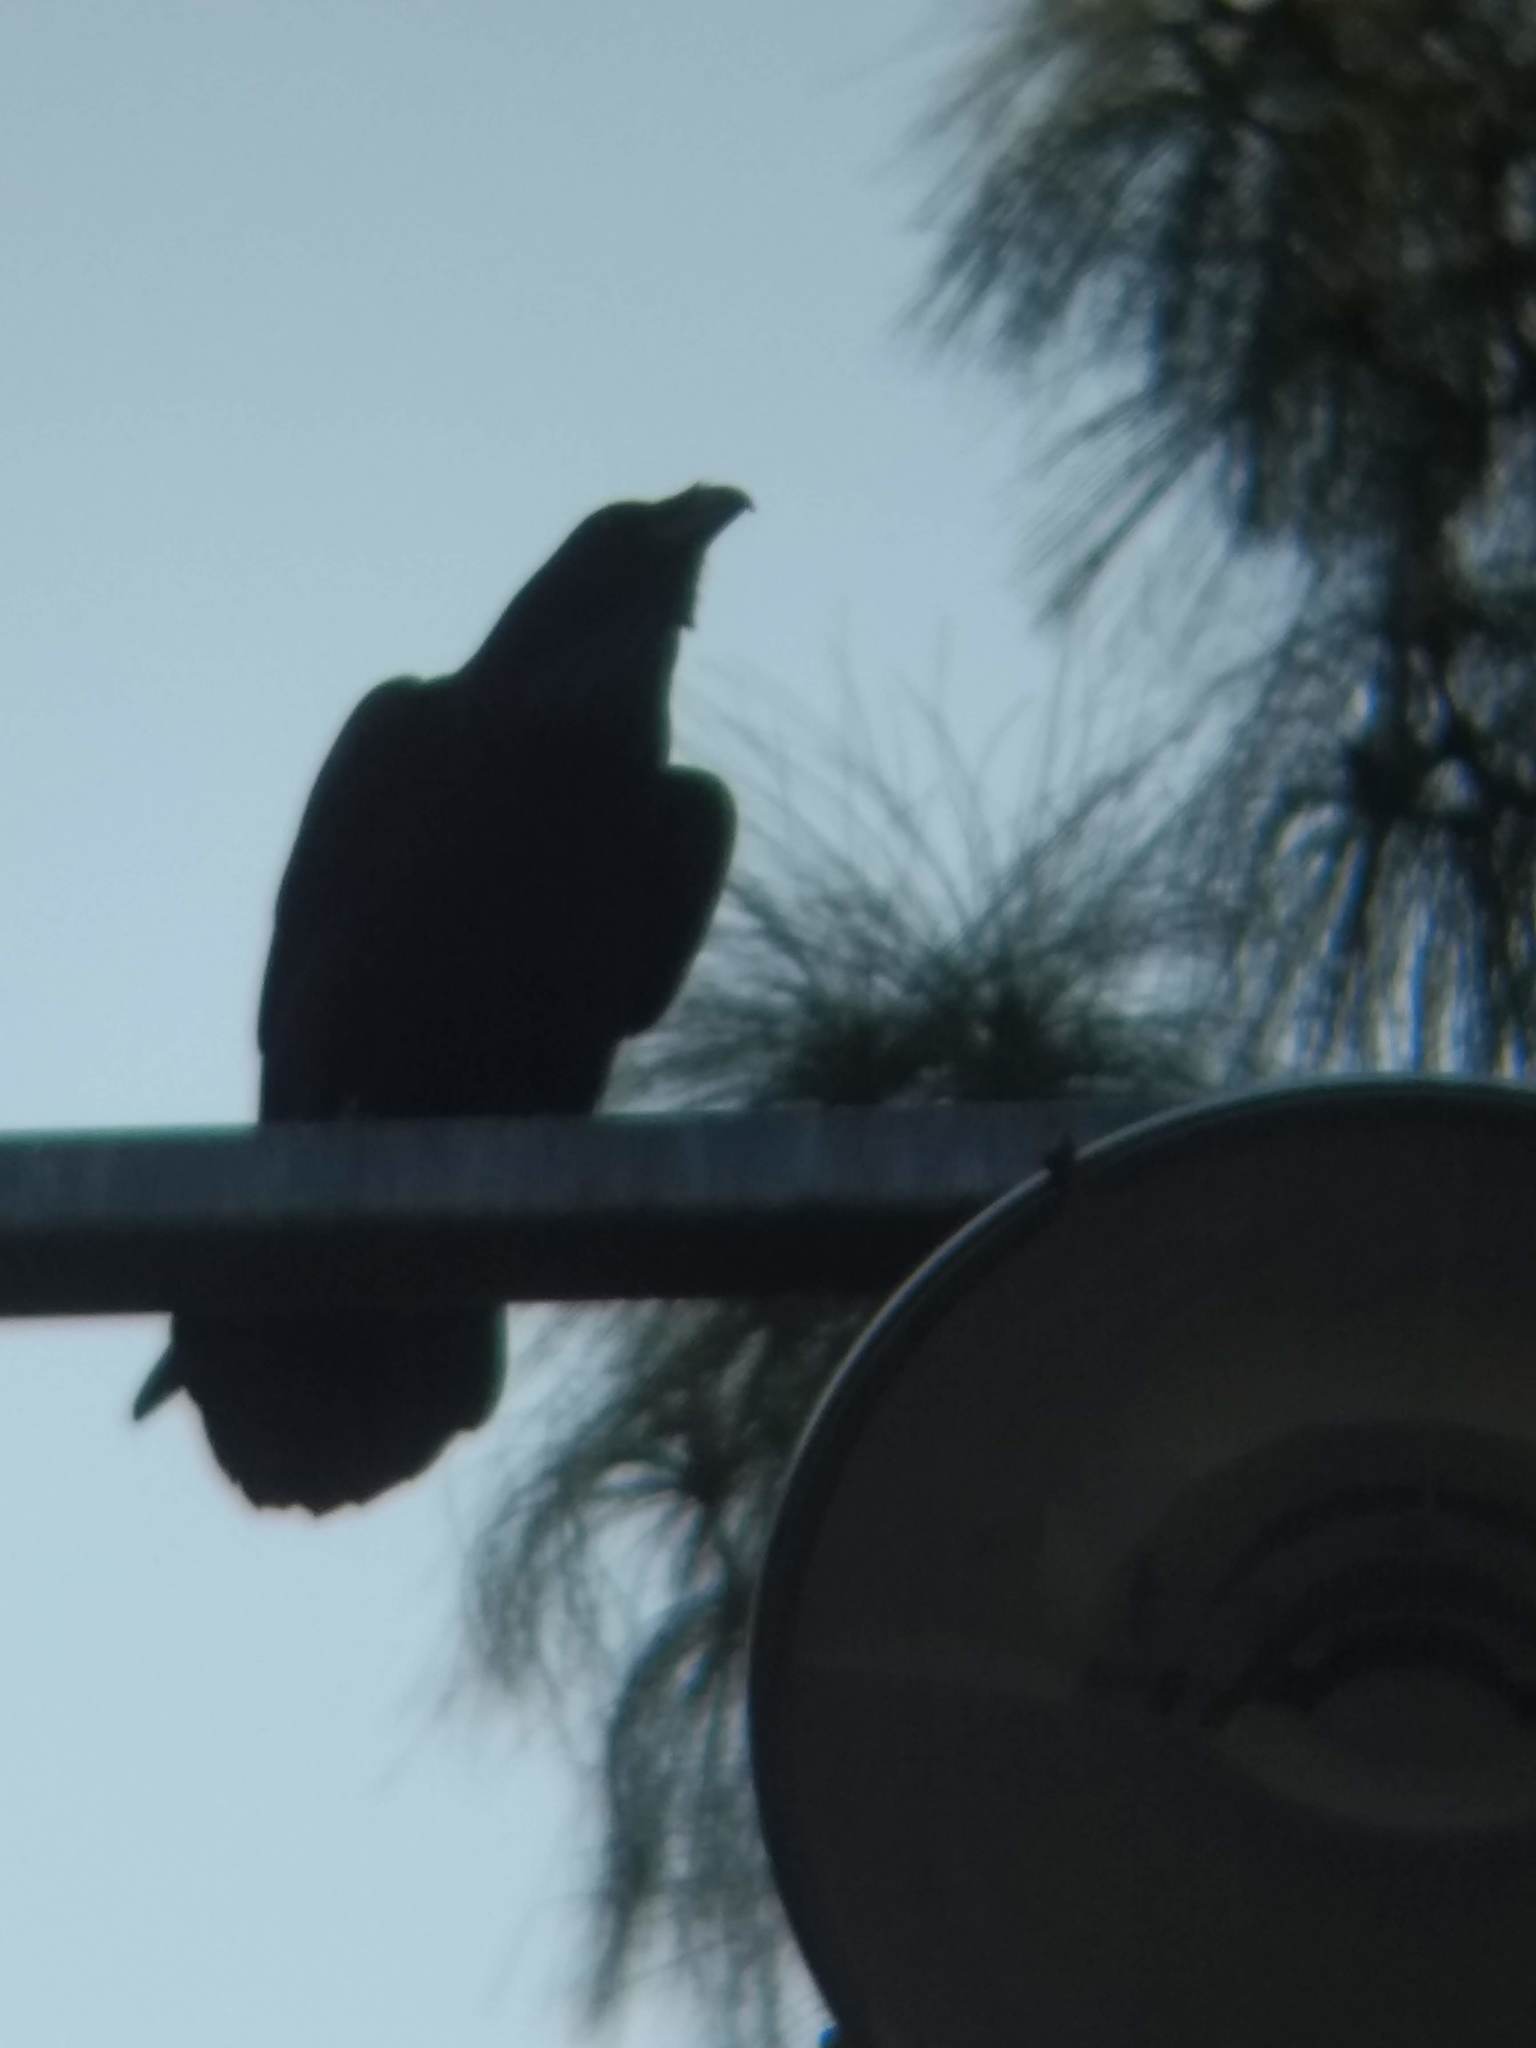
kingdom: Animalia
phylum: Chordata
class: Aves
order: Passeriformes
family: Corvidae
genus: Corvus
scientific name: Corvus corax
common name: Common raven
